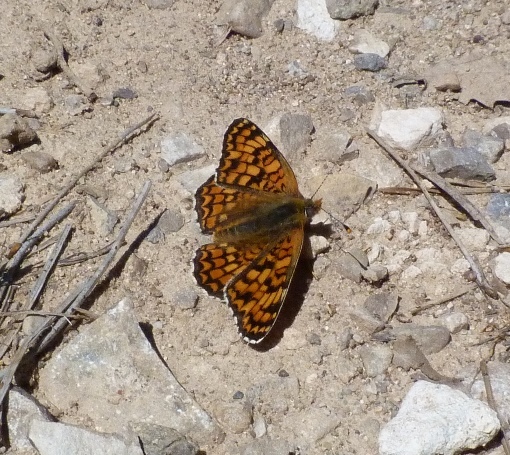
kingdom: Animalia
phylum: Arthropoda
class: Insecta
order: Lepidoptera
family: Nymphalidae
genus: Melitaea
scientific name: Melitaea phoebe
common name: Knapweed fritillary
